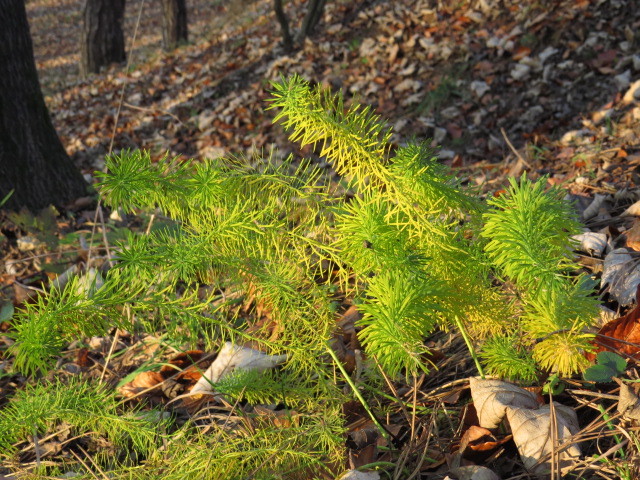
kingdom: Plantae
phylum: Tracheophyta
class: Magnoliopsida
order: Malpighiales
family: Euphorbiaceae
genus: Euphorbia
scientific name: Euphorbia cyparissias
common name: Cypress spurge
